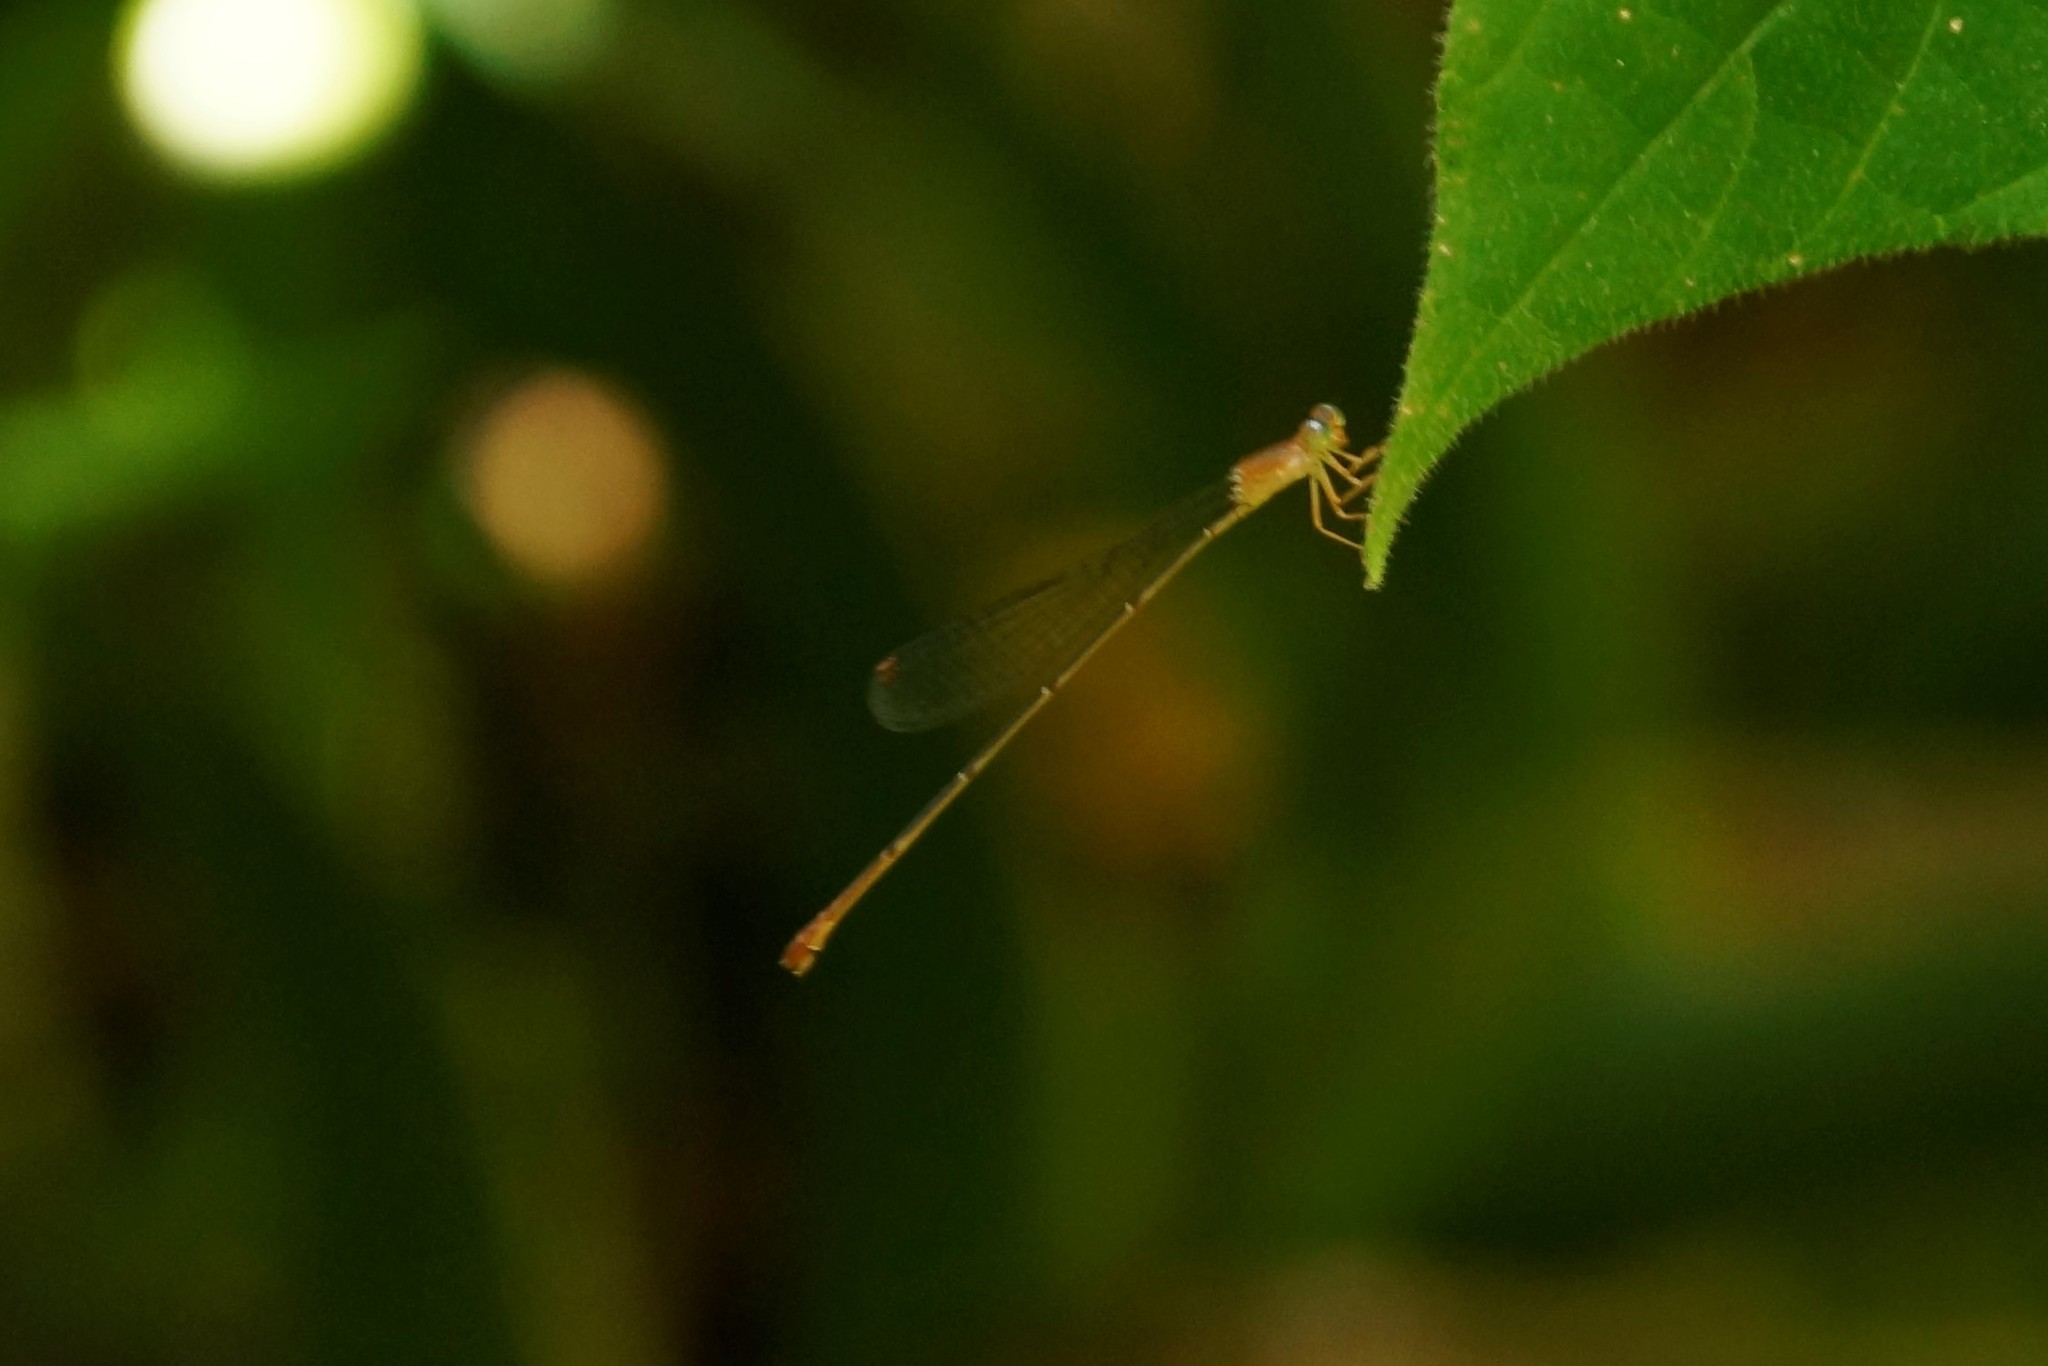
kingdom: Animalia
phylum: Arthropoda
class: Insecta
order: Odonata
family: Coenagrionidae
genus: Teinobasis
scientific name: Teinobasis rufithorax
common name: Red-breasted longtail
